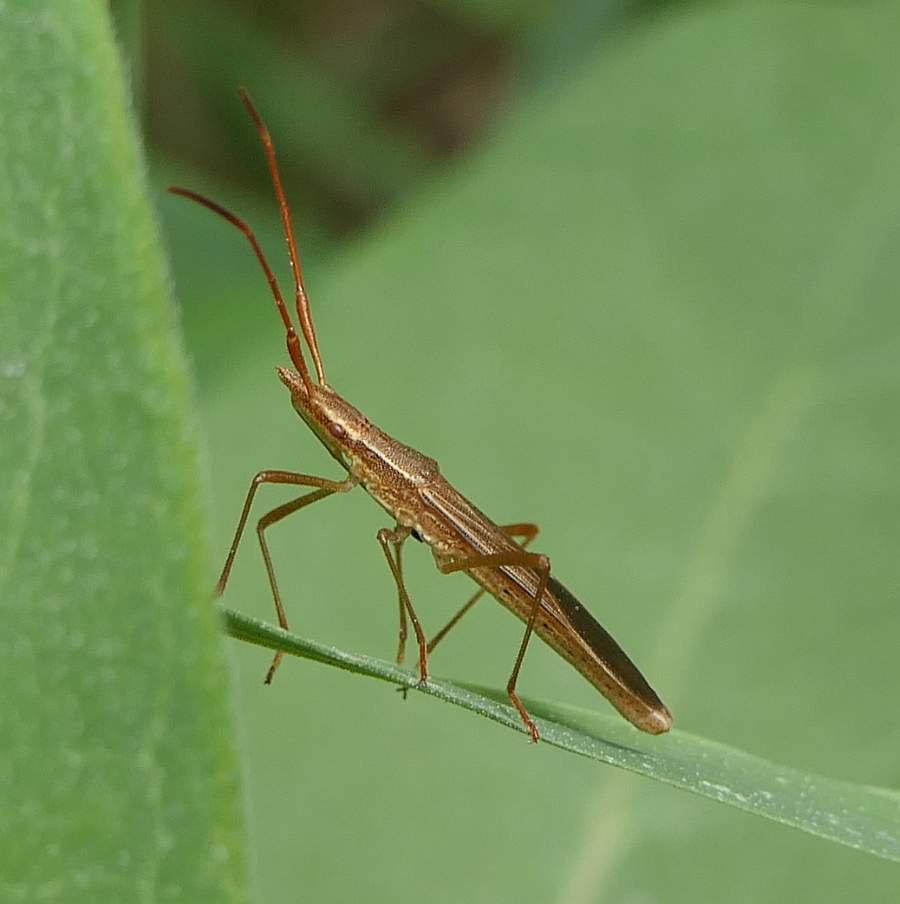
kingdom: Animalia
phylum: Arthropoda
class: Insecta
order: Hemiptera
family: Alydidae
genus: Protenor
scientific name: Protenor belfragei
